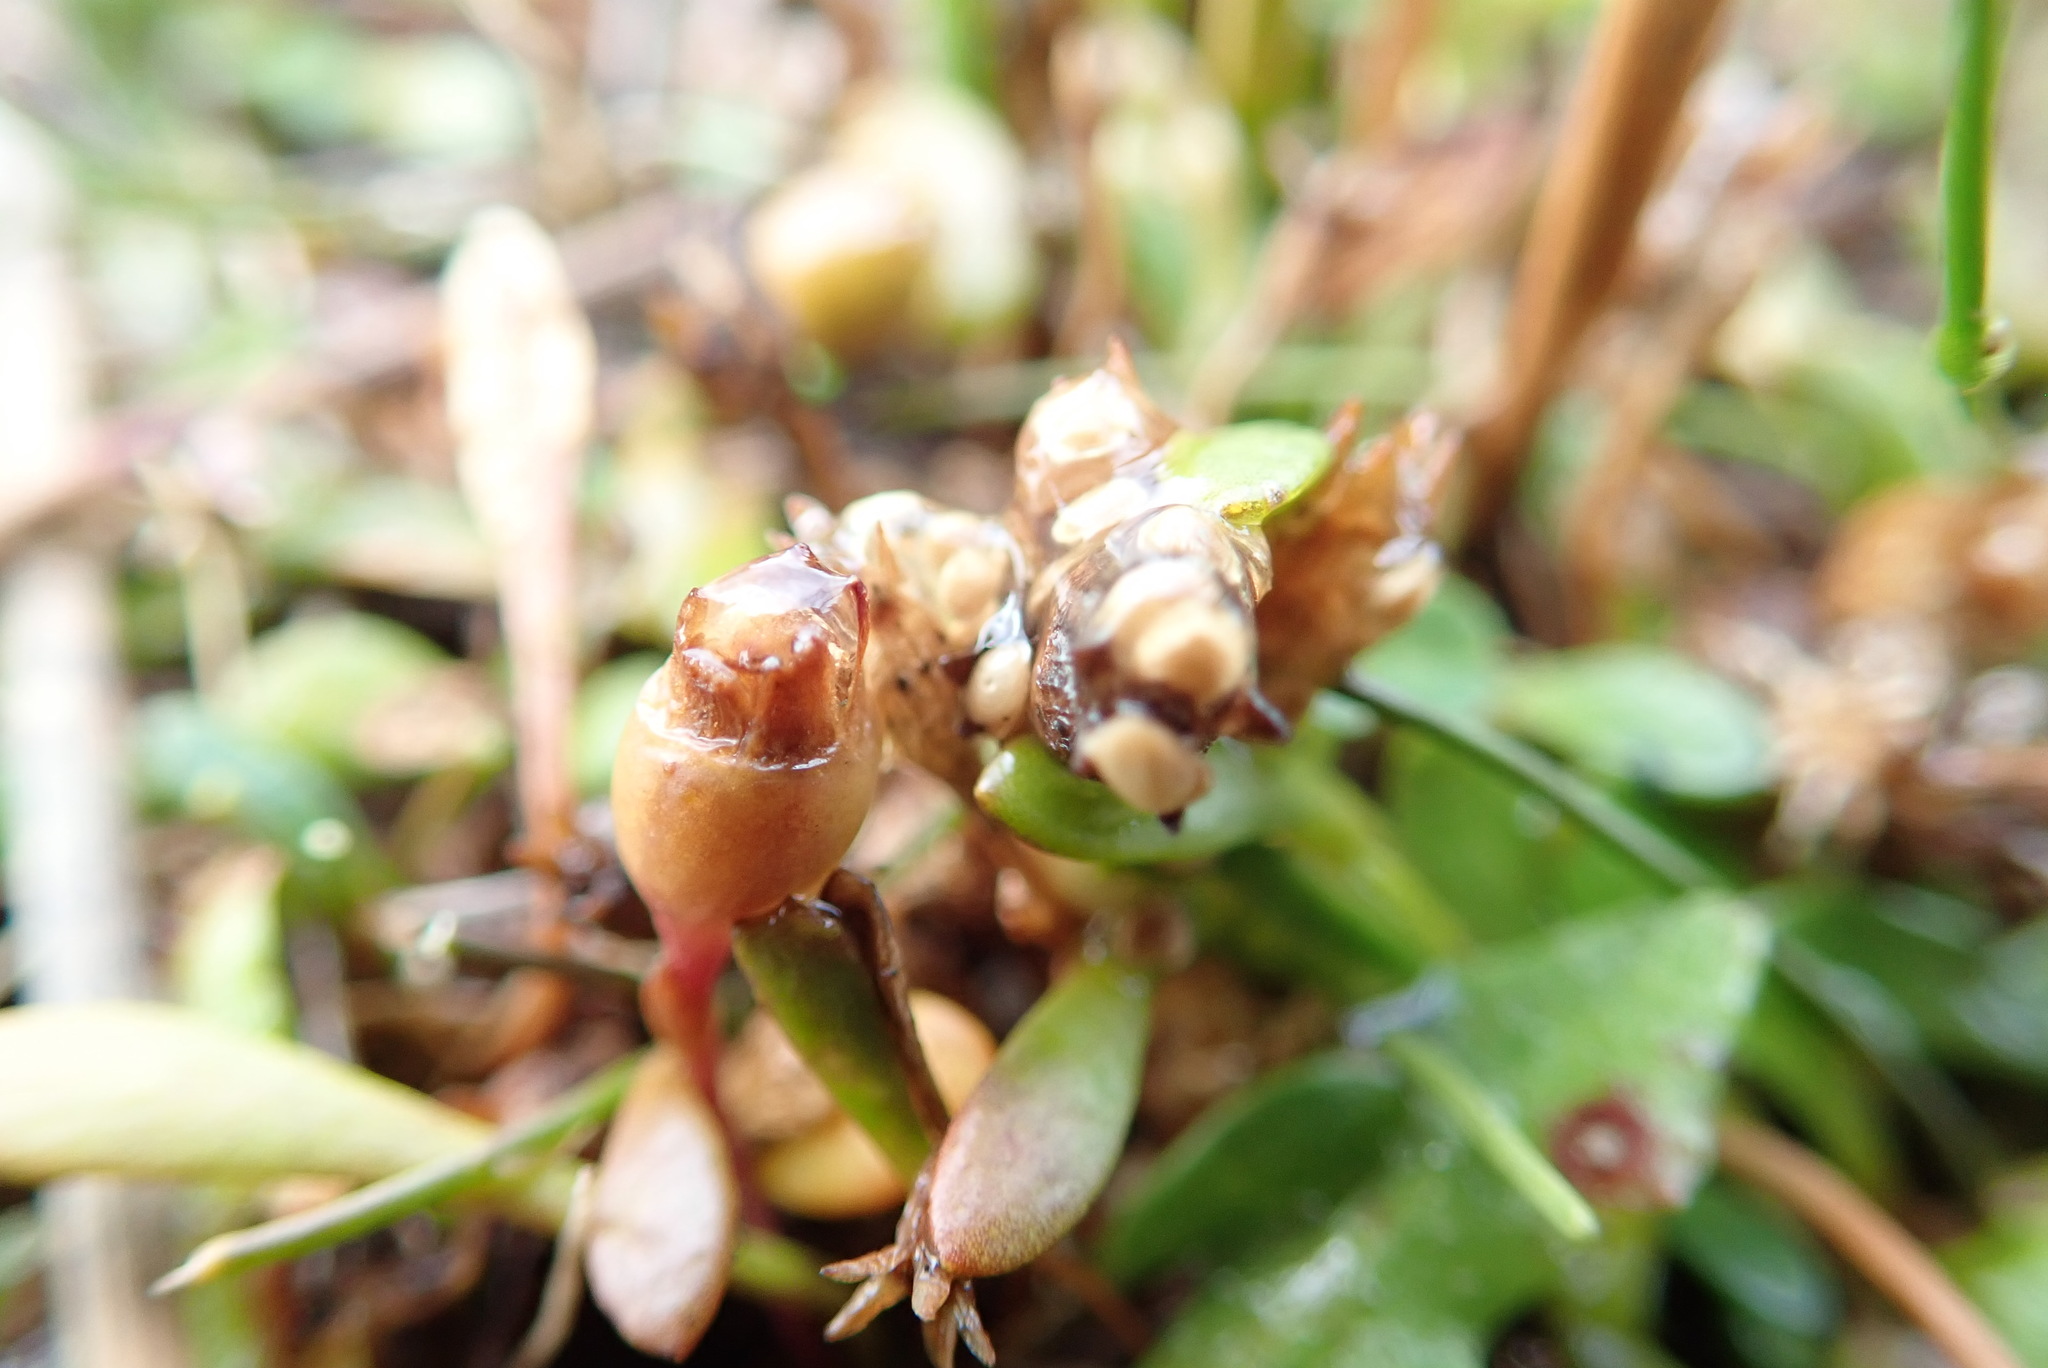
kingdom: Plantae
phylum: Tracheophyta
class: Magnoliopsida
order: Asterales
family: Goodeniaceae
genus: Goodenia
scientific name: Goodenia radicans
